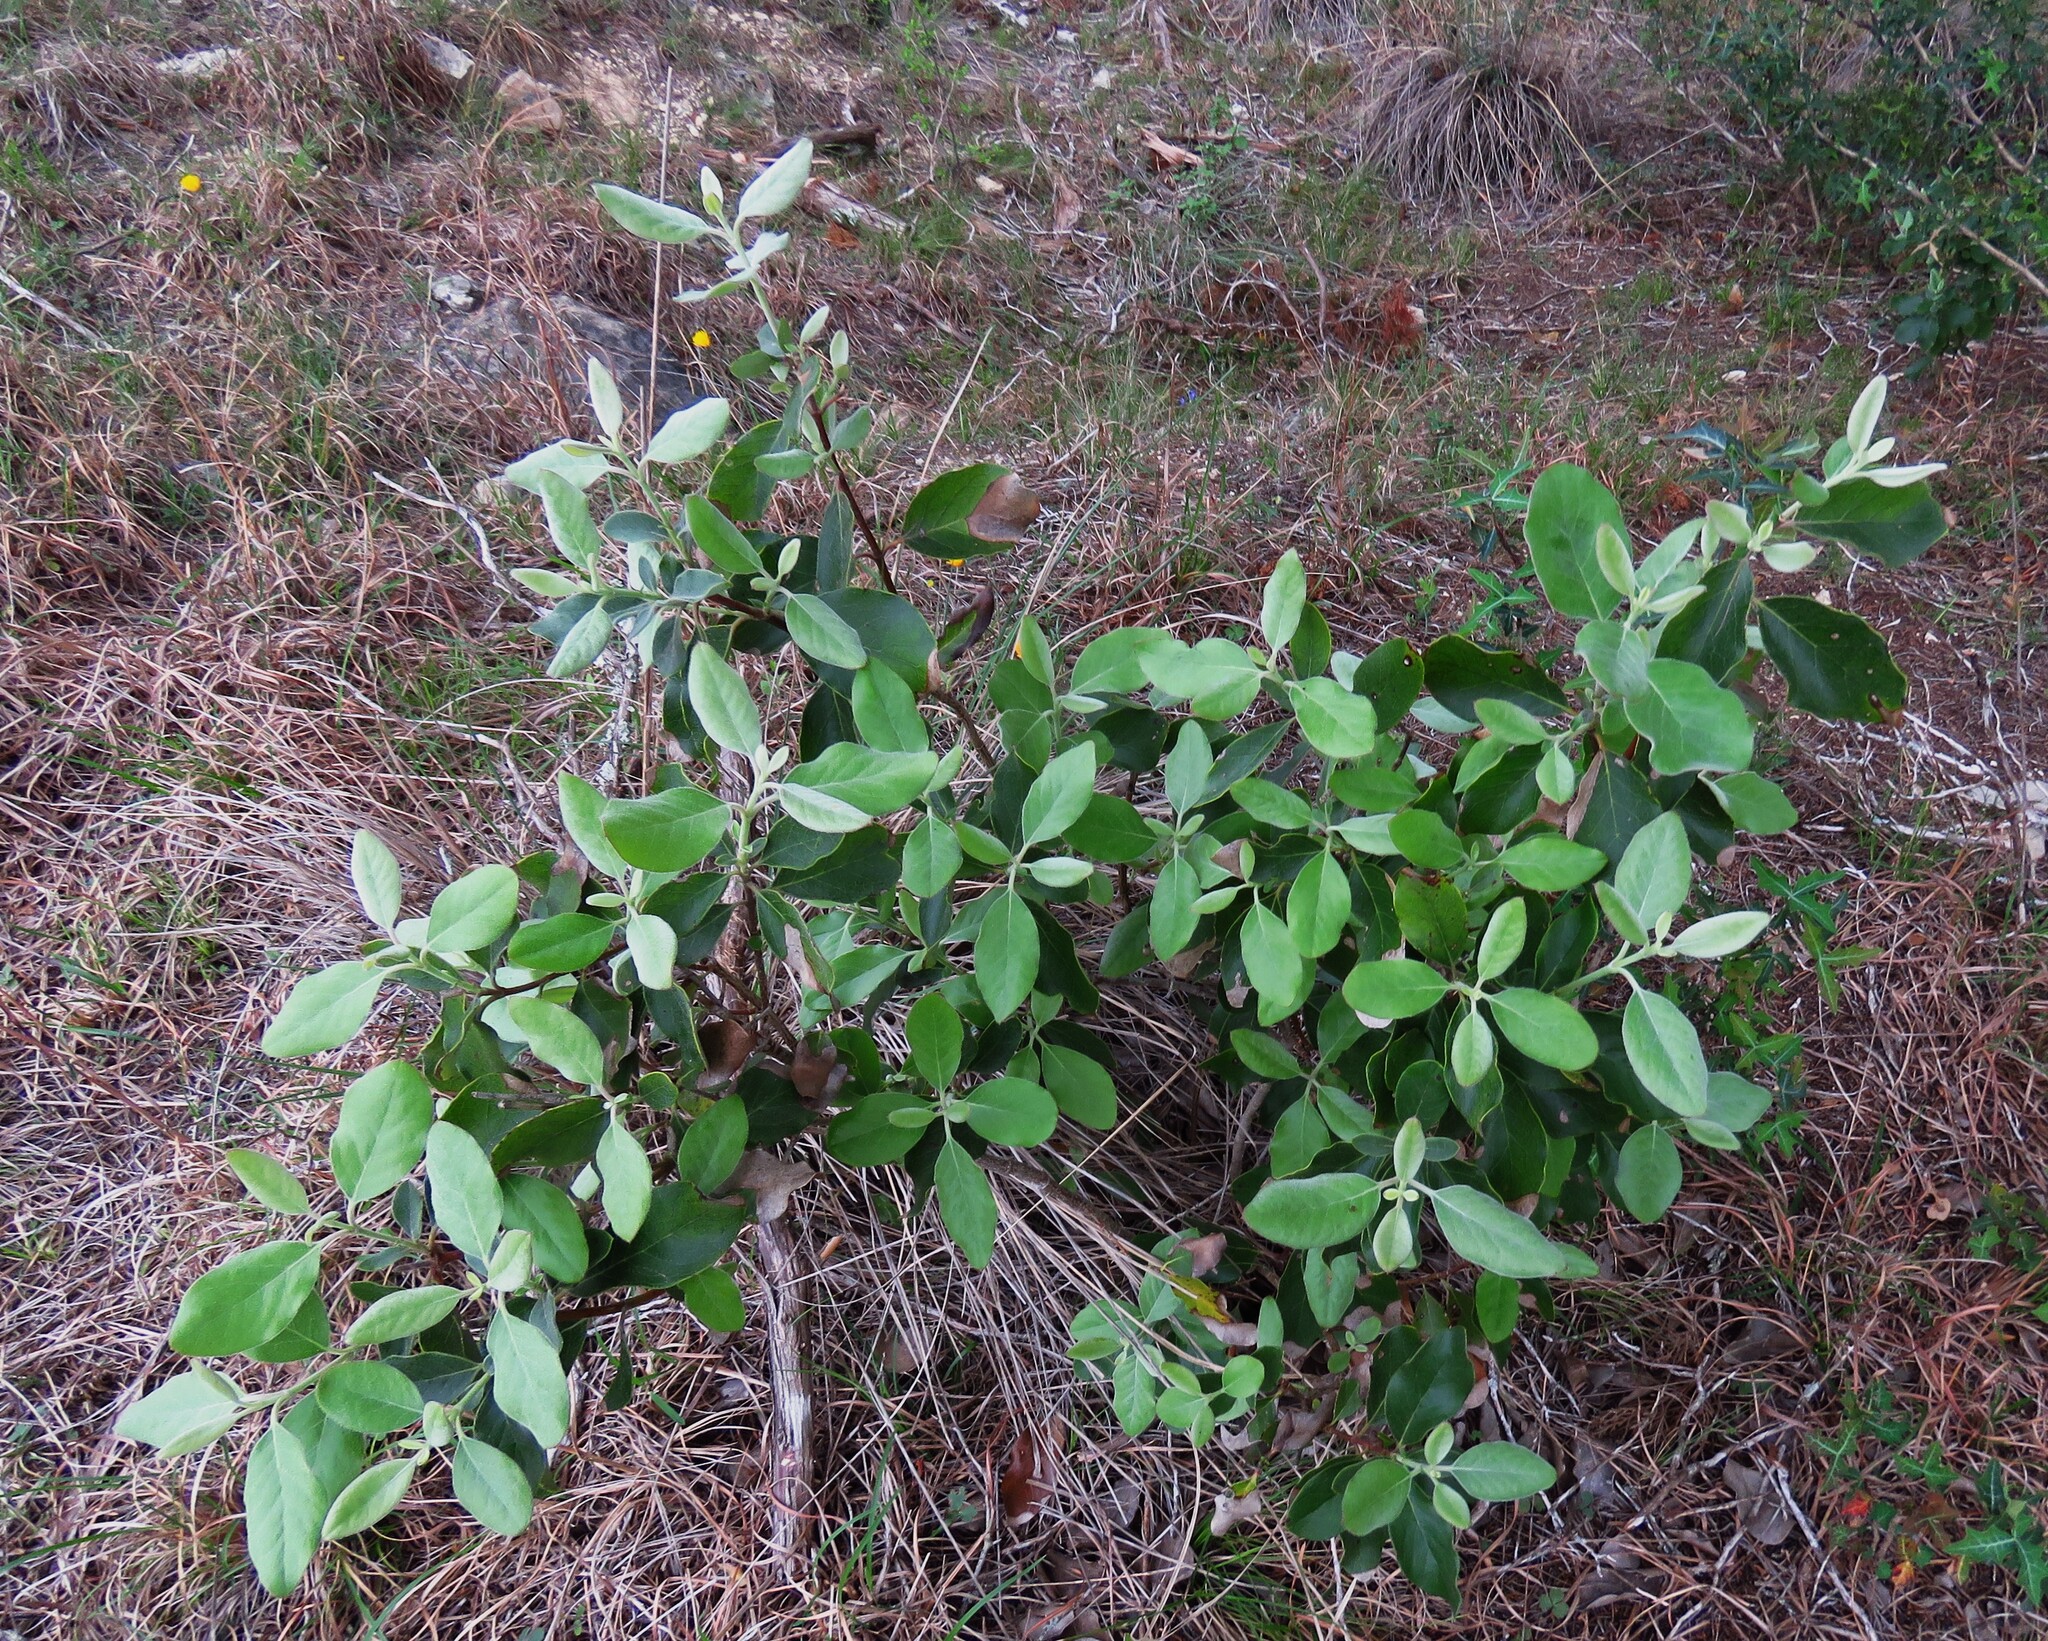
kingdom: Plantae
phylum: Tracheophyta
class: Magnoliopsida
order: Garryales
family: Garryaceae
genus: Garrya
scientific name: Garrya lindheimeri
